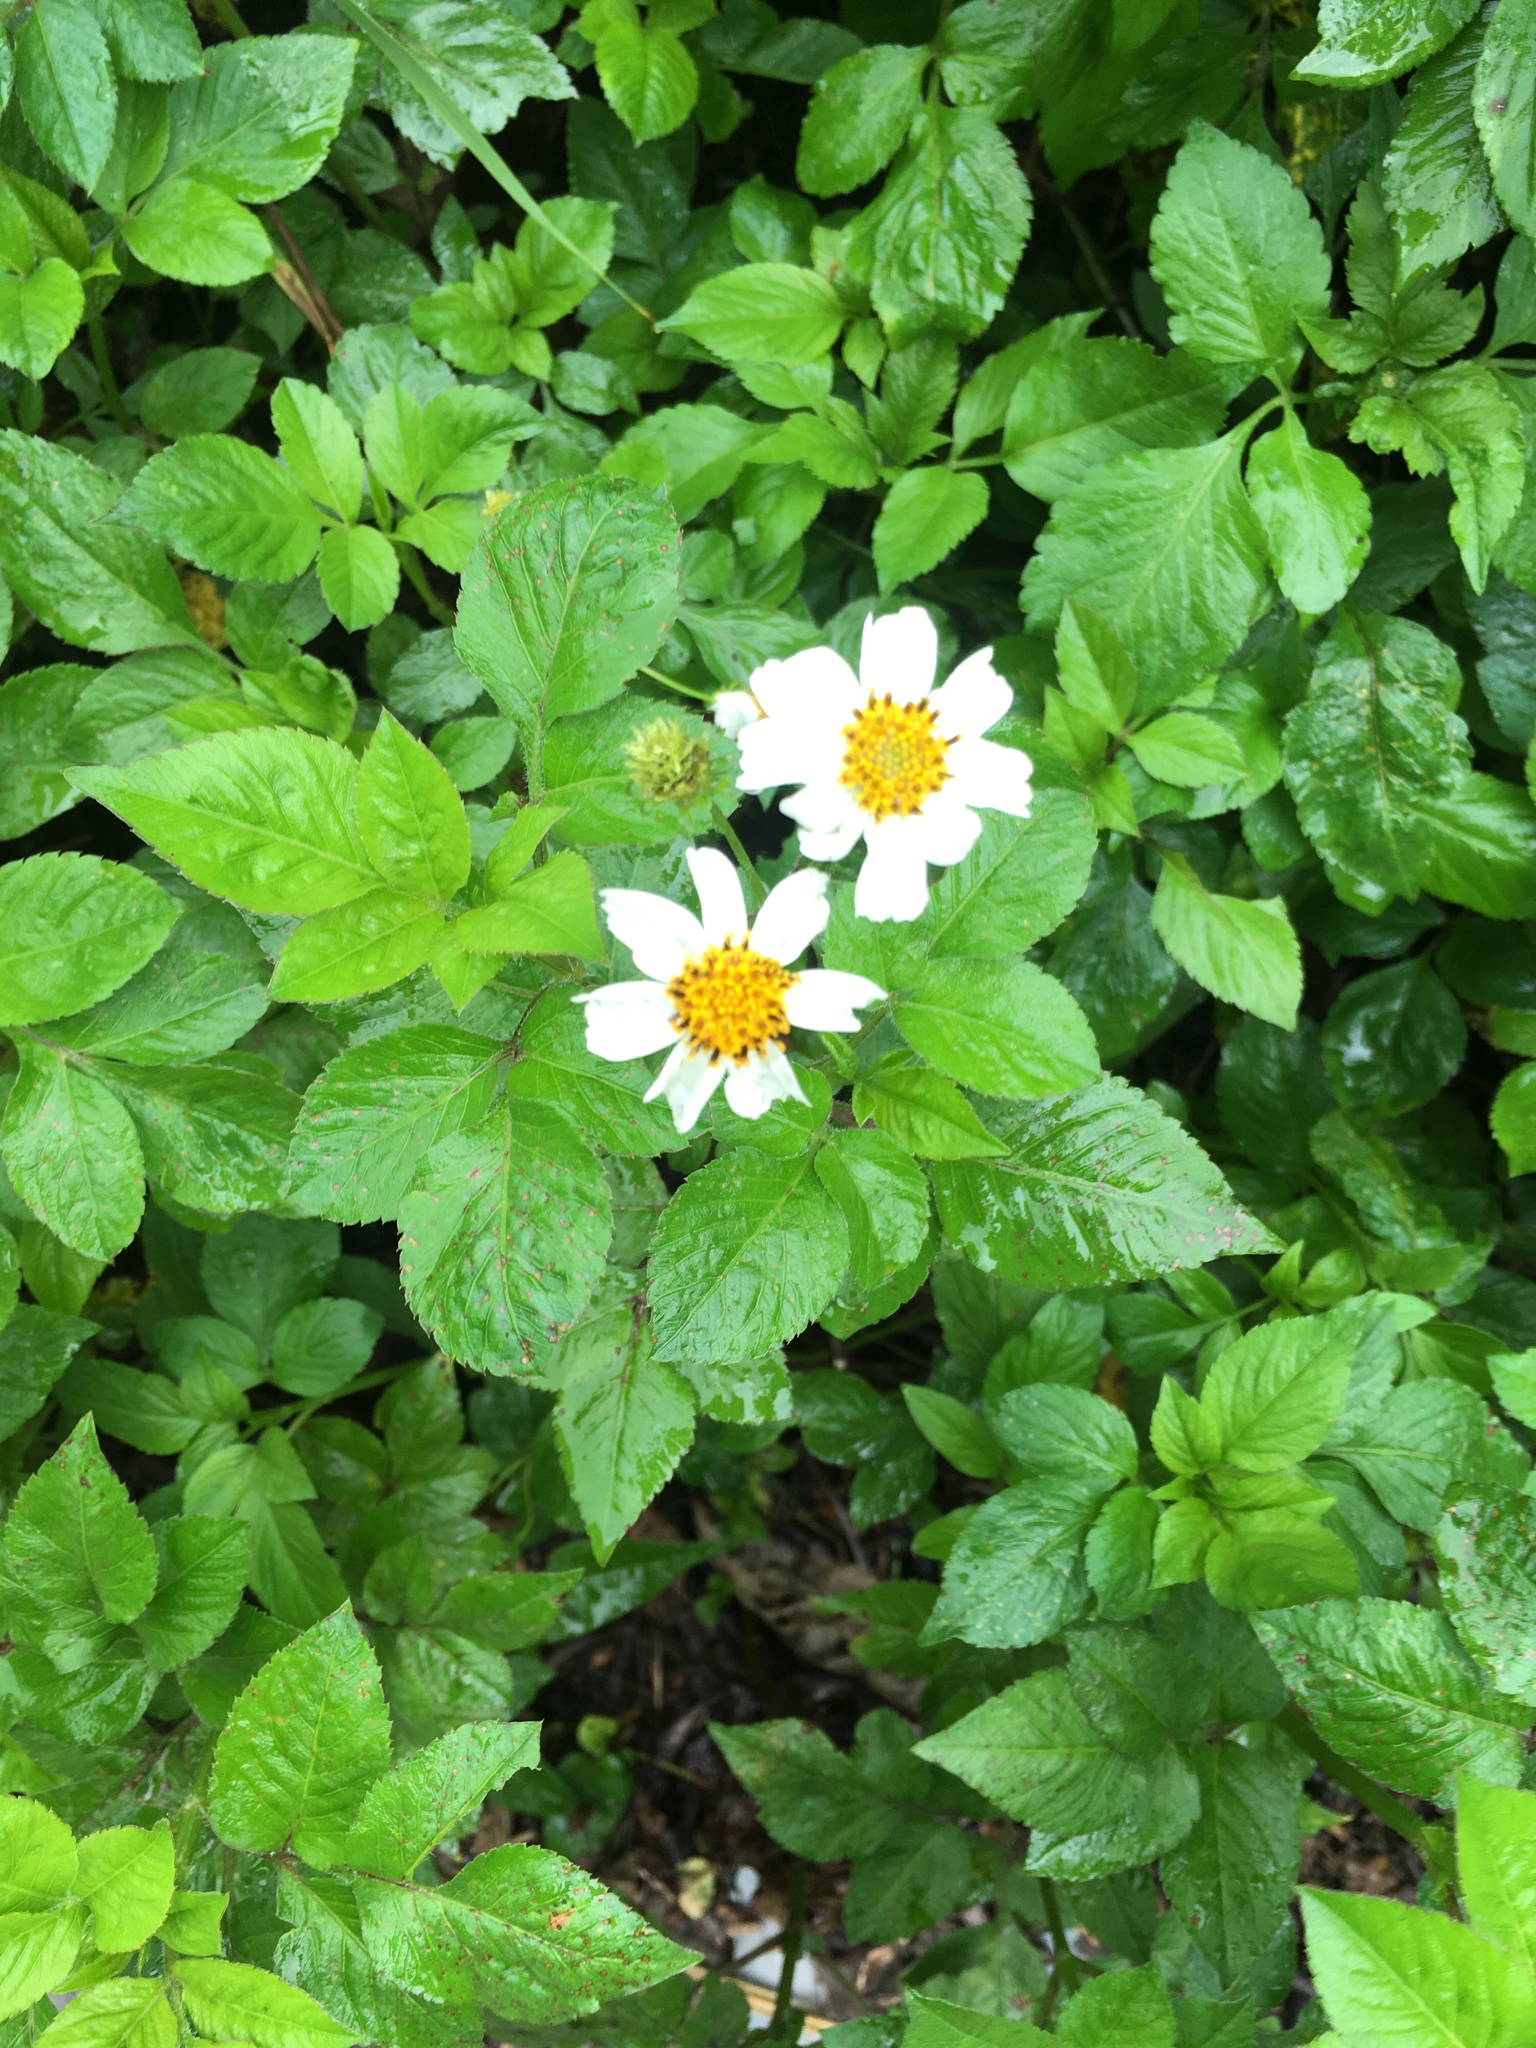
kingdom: Plantae
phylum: Tracheophyta
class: Magnoliopsida
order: Asterales
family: Asteraceae
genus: Bidens
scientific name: Bidens alba
